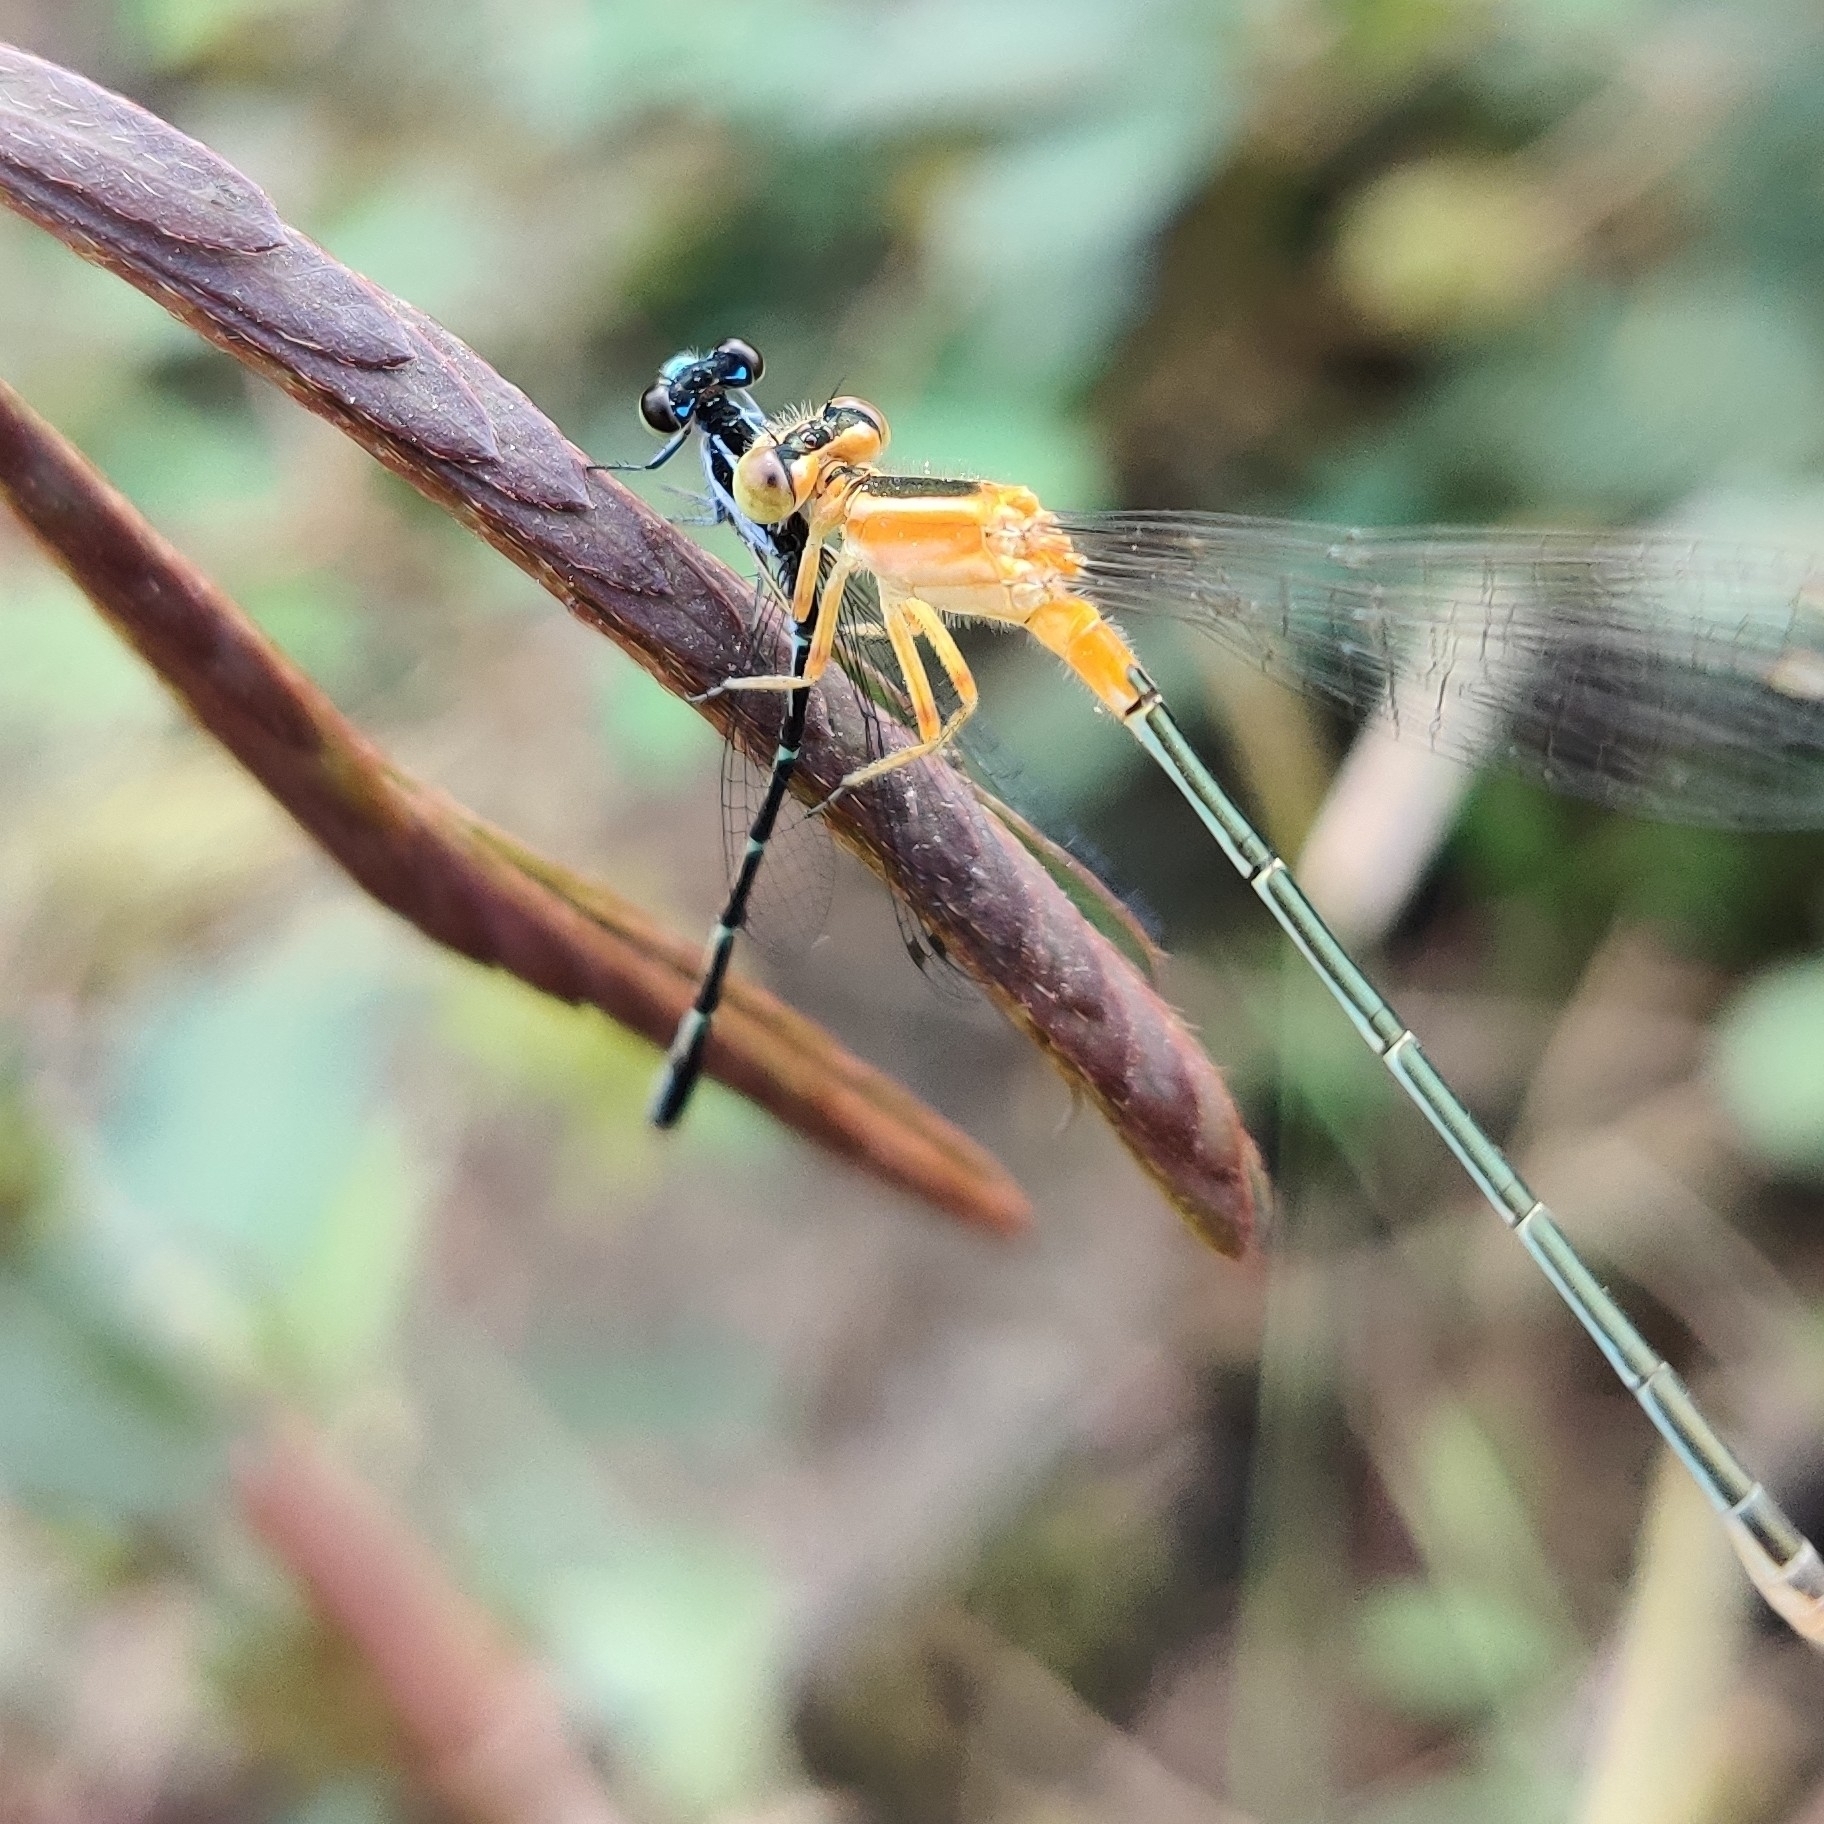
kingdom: Animalia
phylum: Arthropoda
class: Insecta
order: Odonata
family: Coenagrionidae
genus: Agriocnemis
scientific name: Agriocnemis splendidissima
